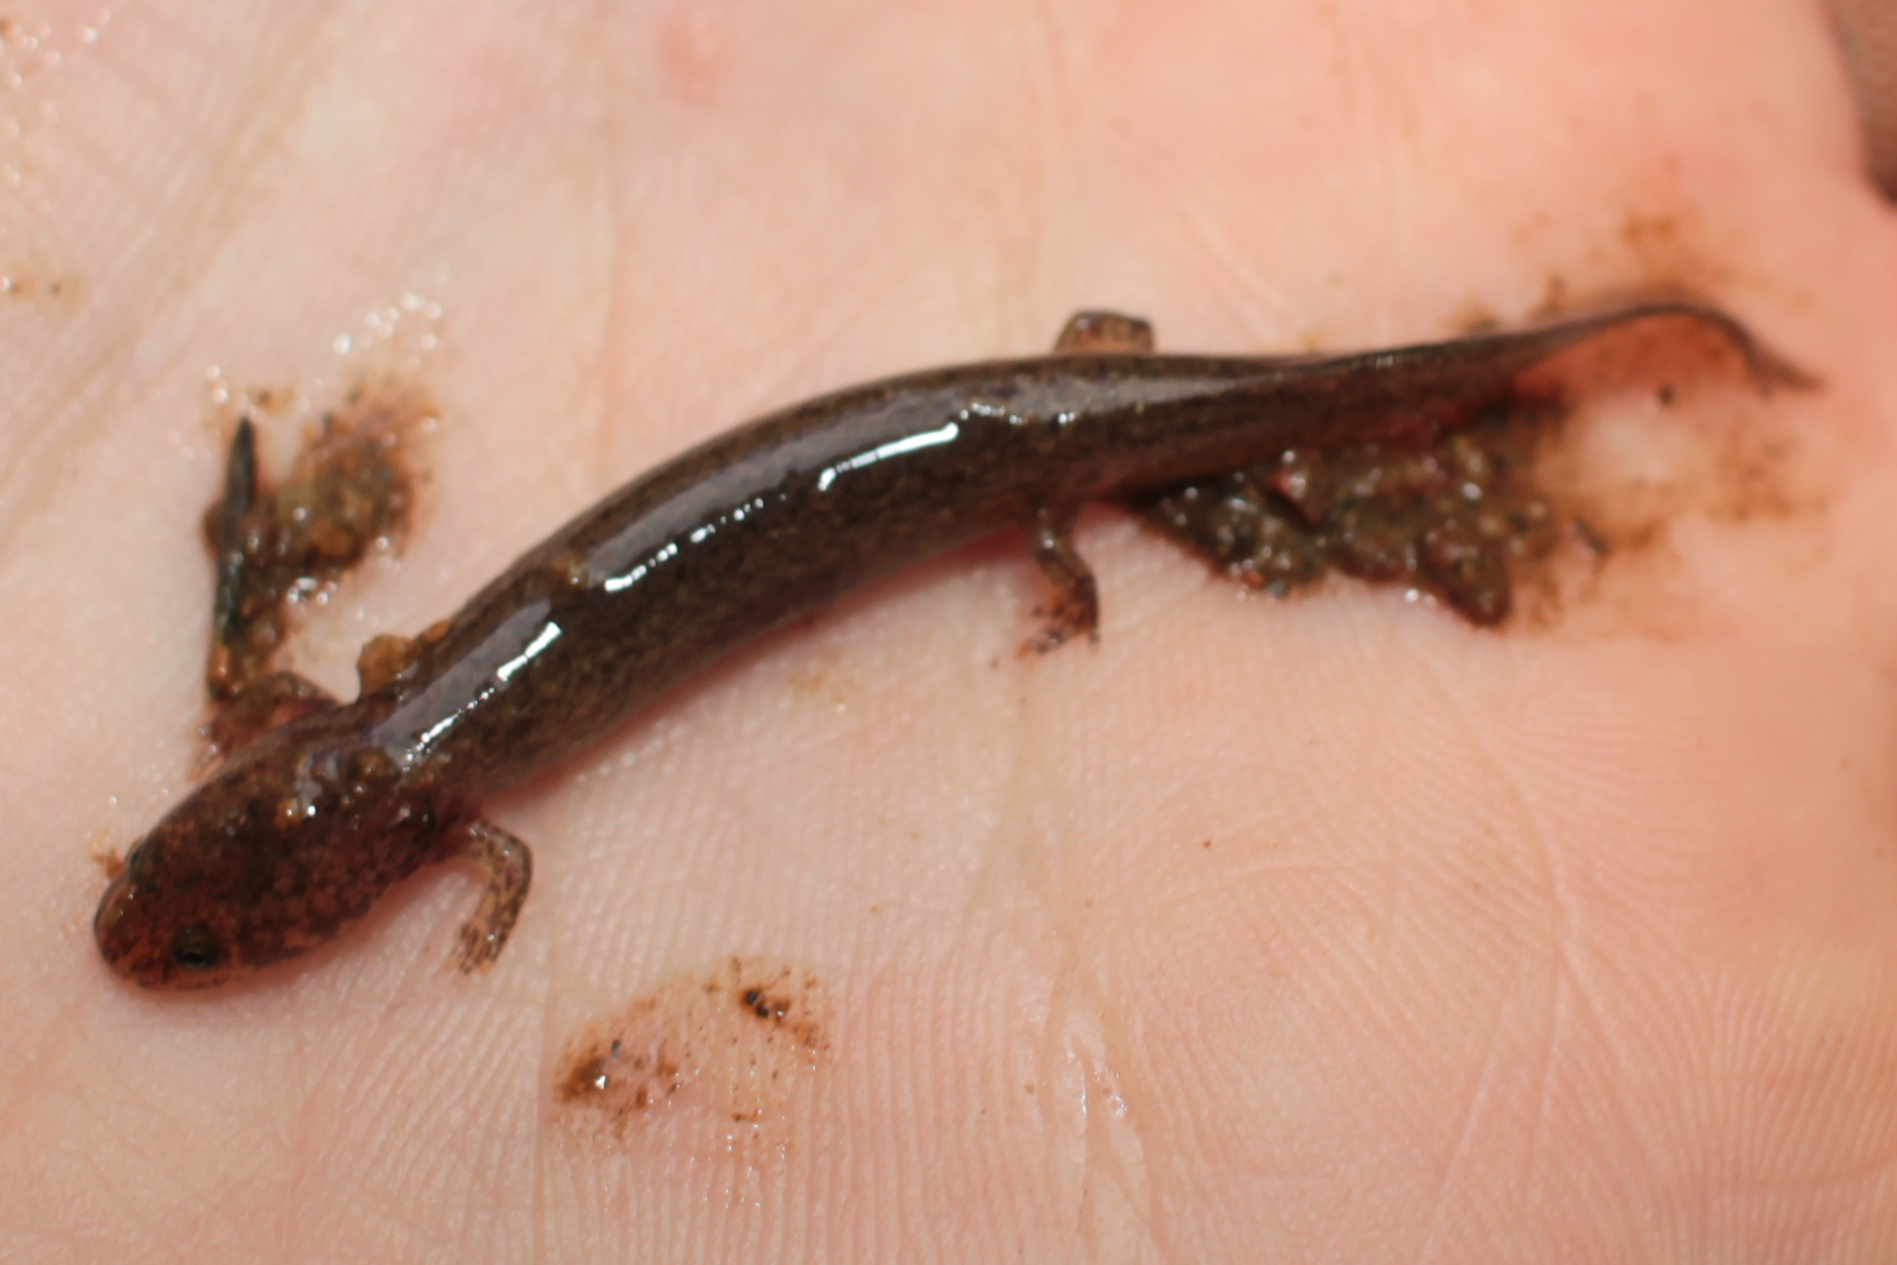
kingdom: Animalia
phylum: Chordata
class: Amphibia
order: Caudata
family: Plethodontidae
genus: Pseudotriton
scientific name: Pseudotriton ruber
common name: Red salamander
